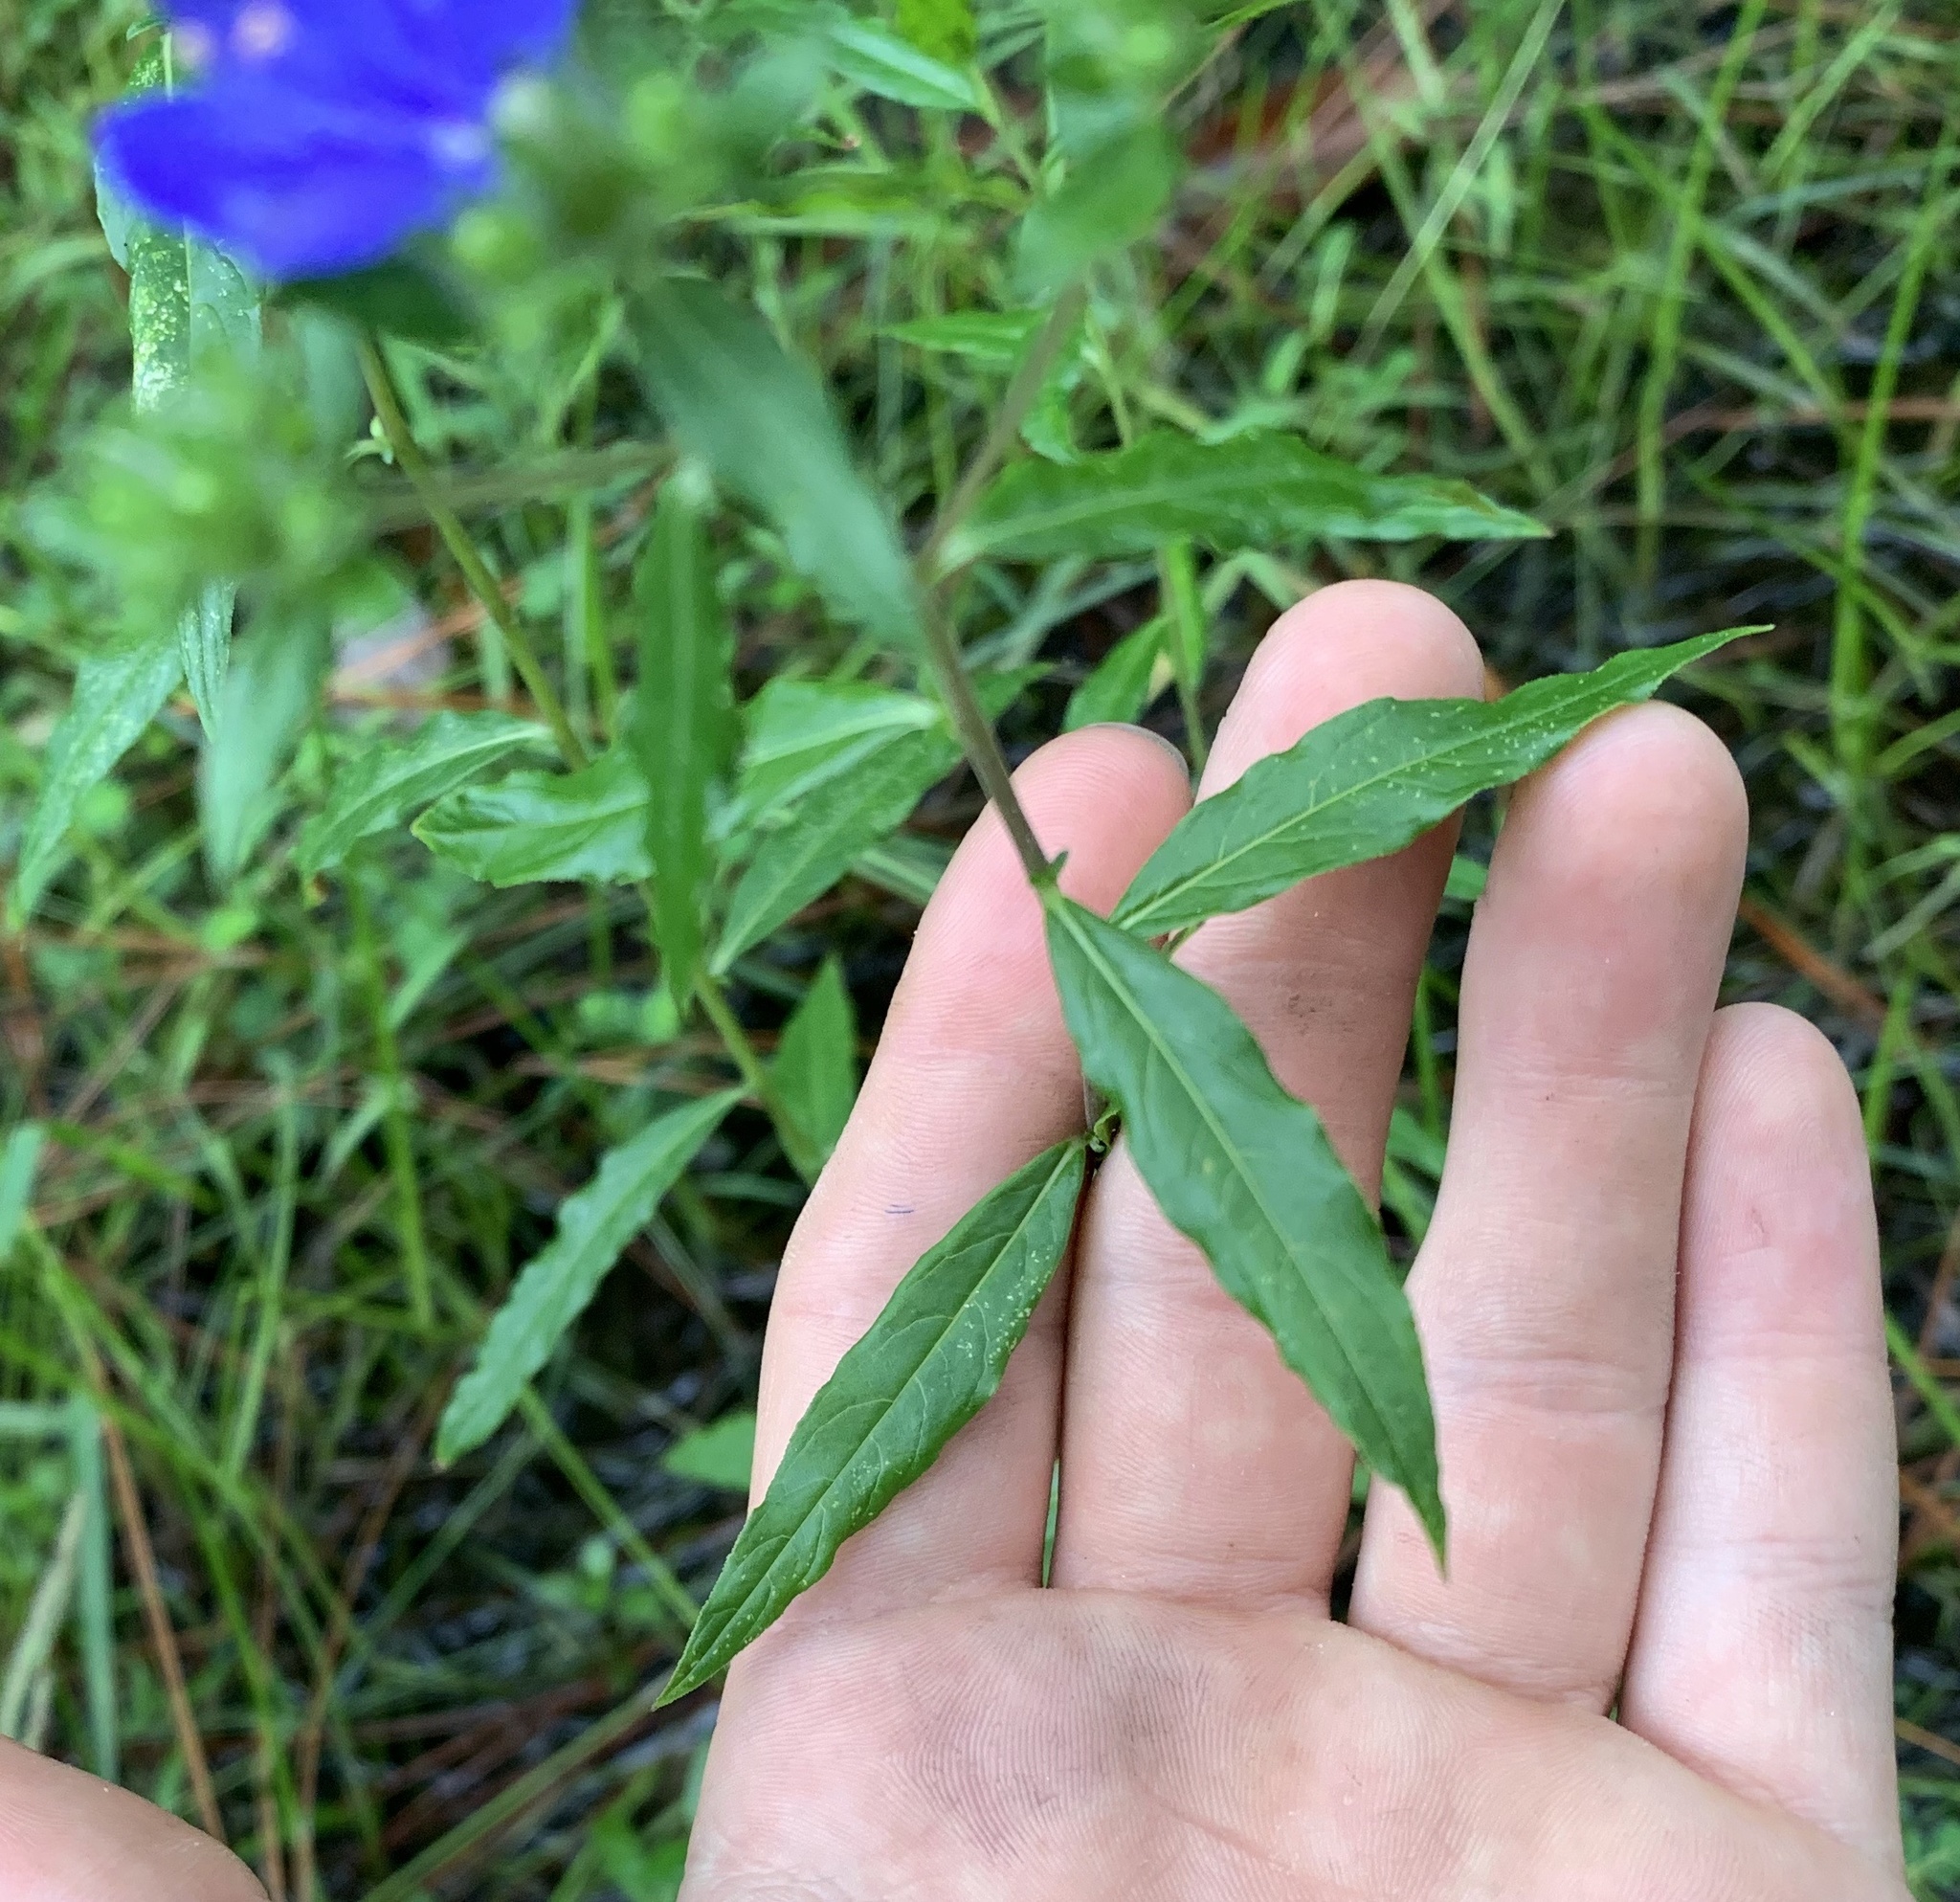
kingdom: Plantae
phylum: Tracheophyta
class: Magnoliopsida
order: Solanales
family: Hydroleaceae
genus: Hydrolea
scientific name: Hydrolea corymbosa
